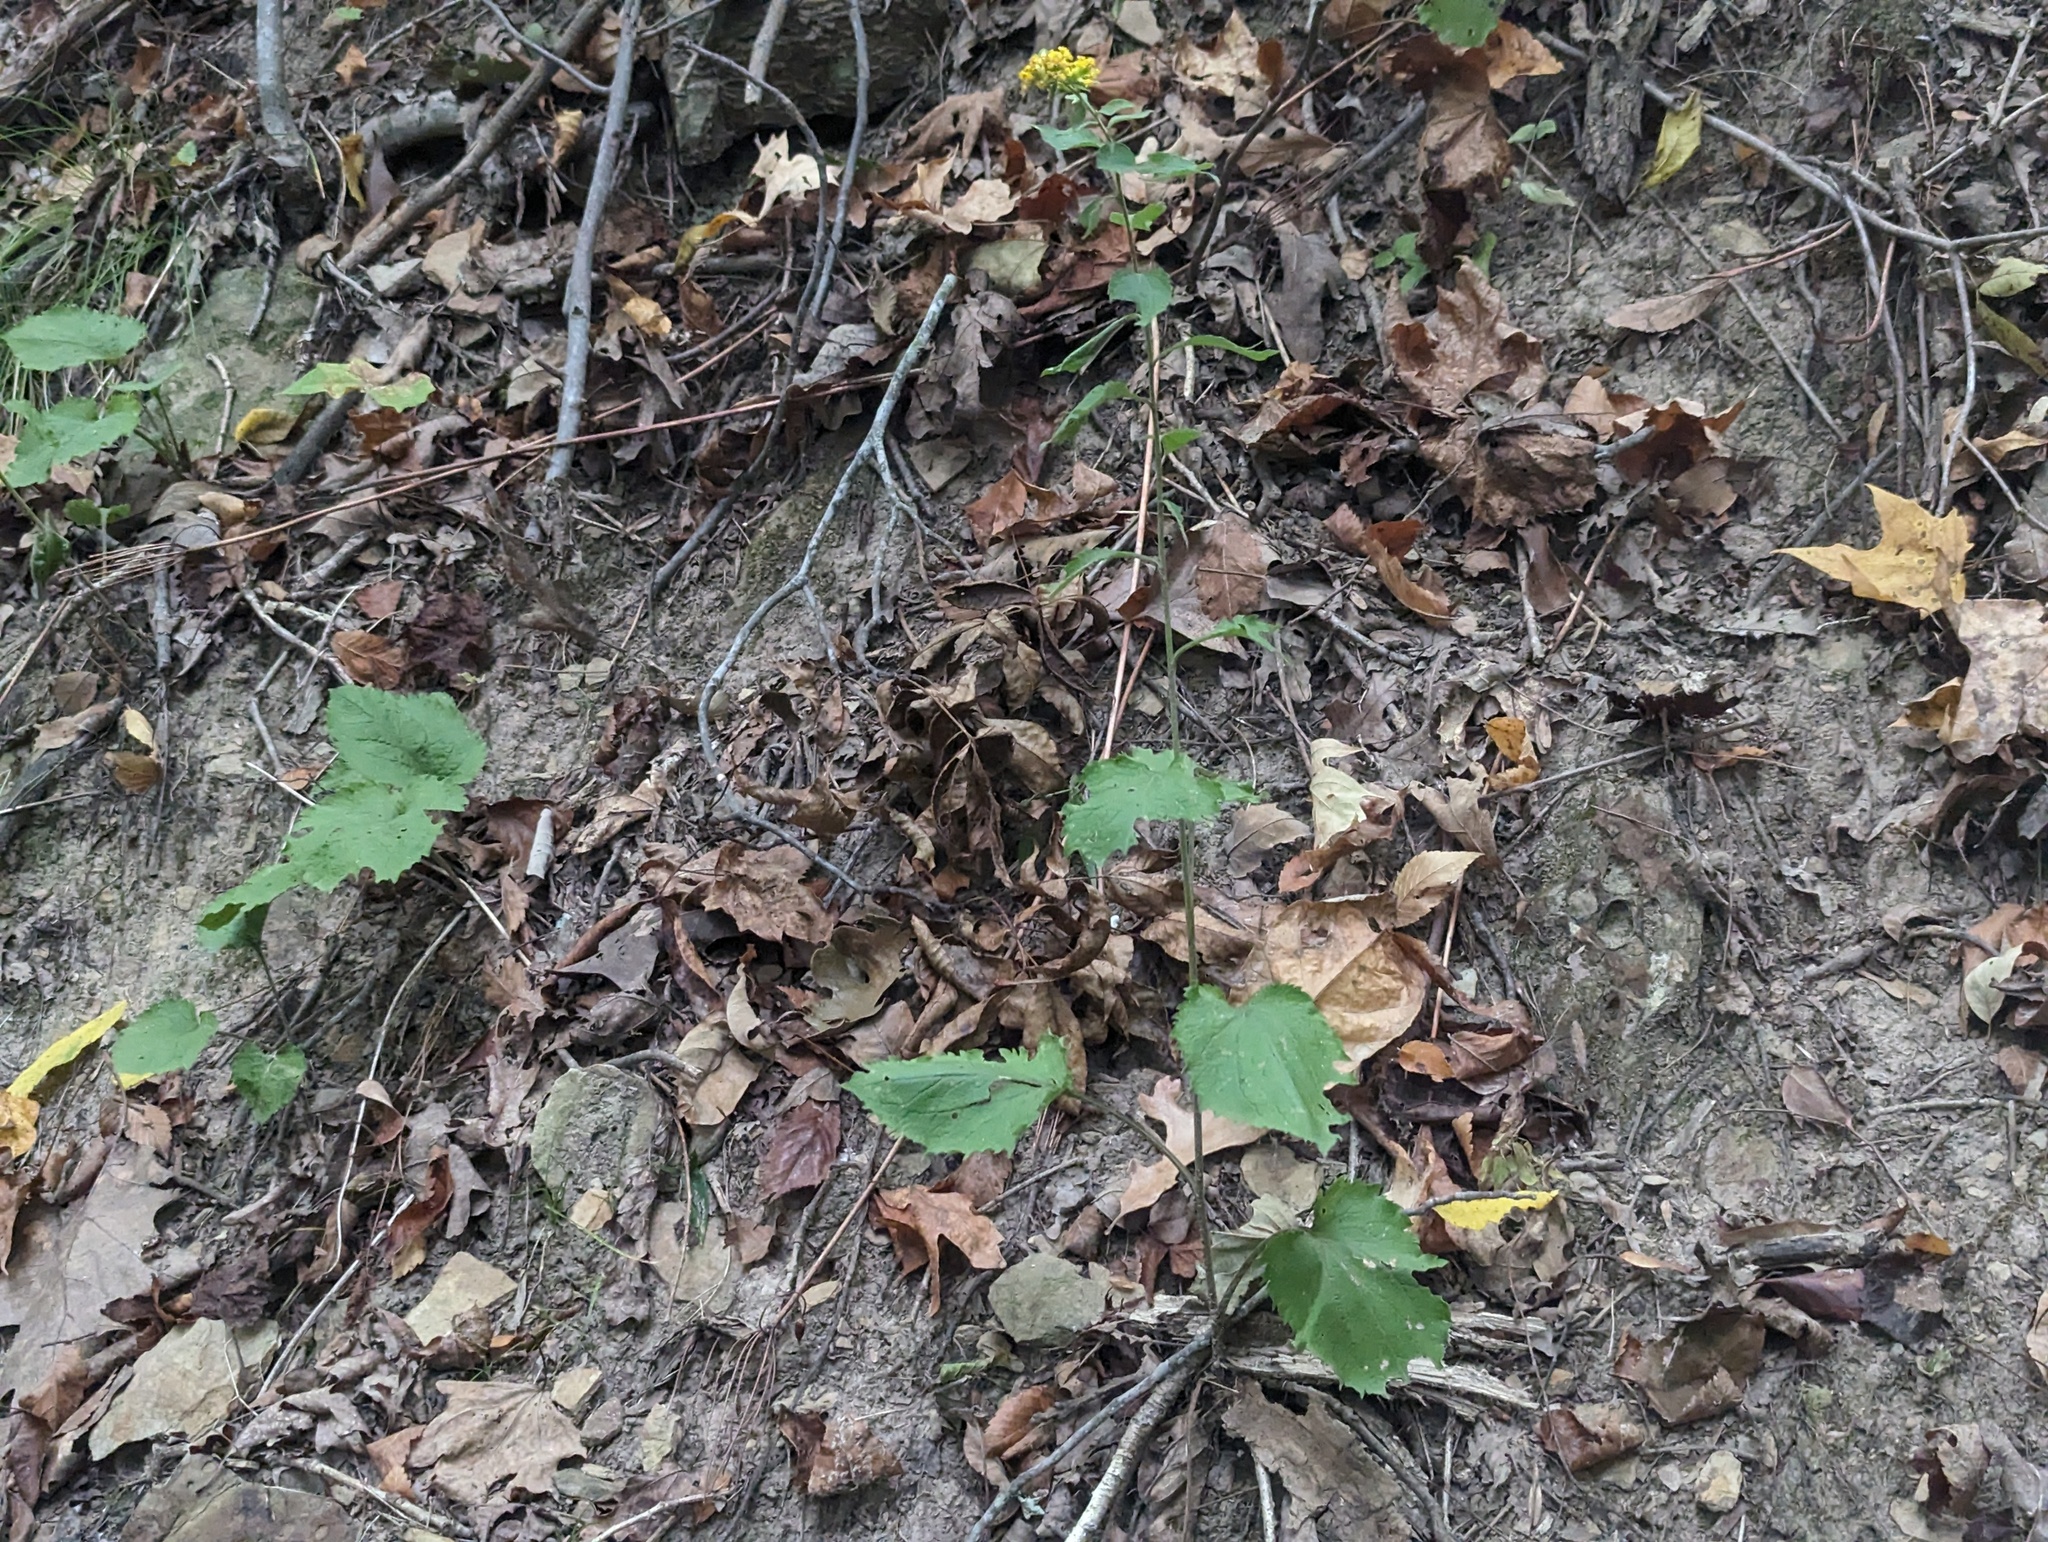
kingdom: Plantae
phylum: Tracheophyta
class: Magnoliopsida
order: Asterales
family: Asteraceae
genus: Solidago
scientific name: Solidago sphacelata
